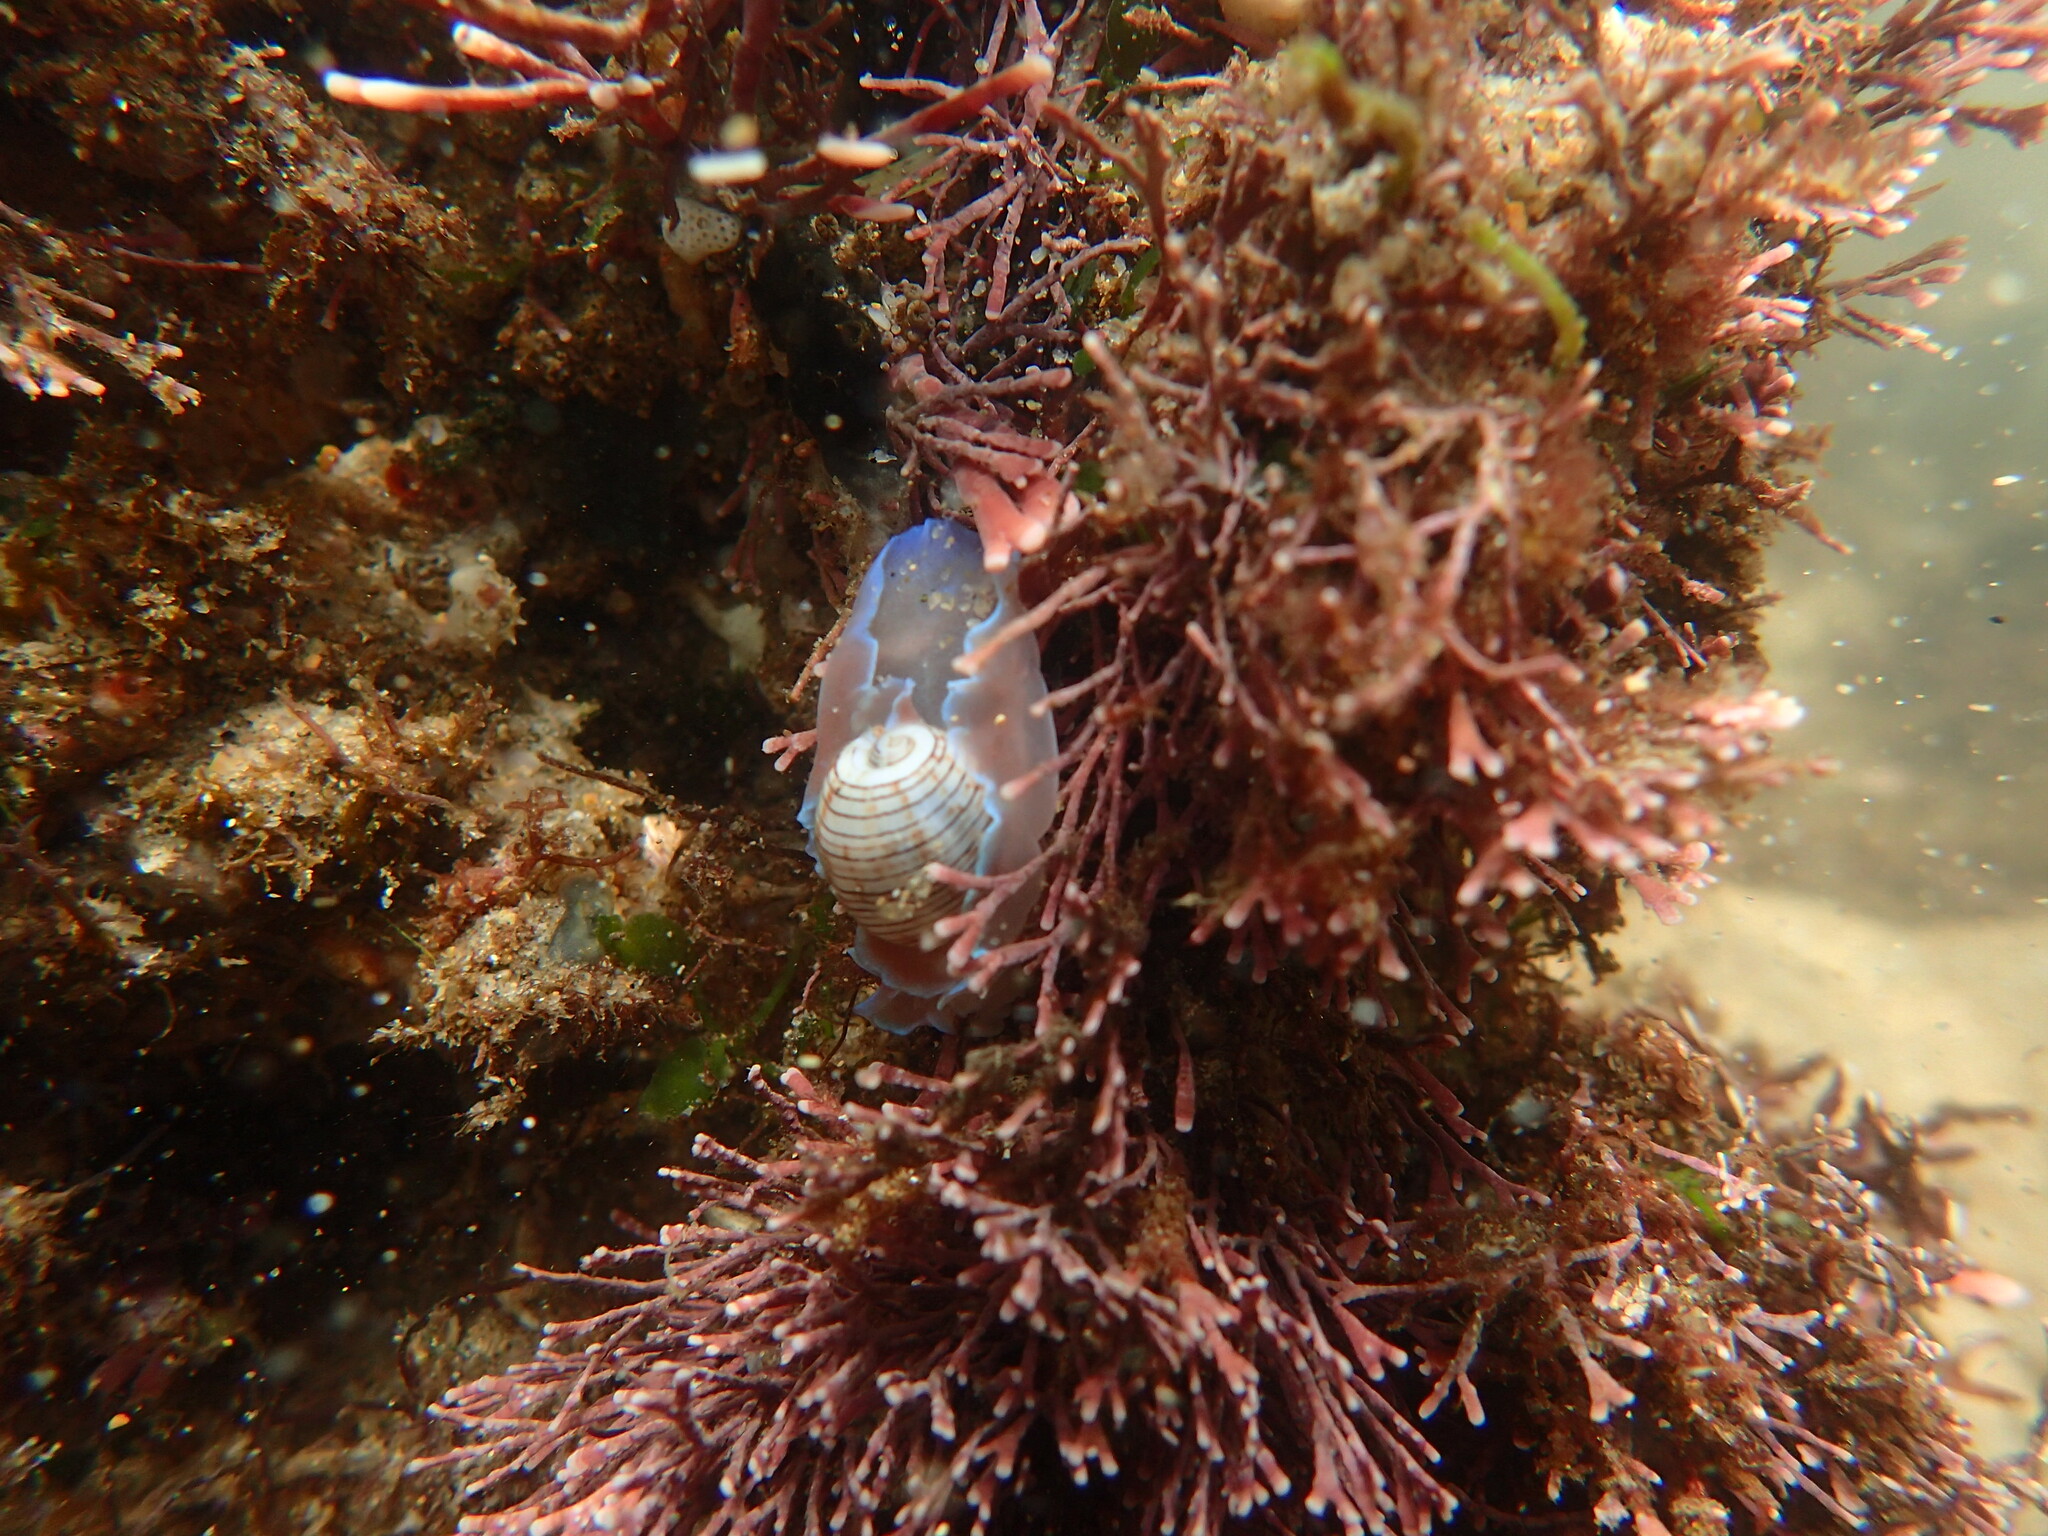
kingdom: Animalia
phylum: Mollusca
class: Gastropoda
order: Cephalaspidea
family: Aplustridae
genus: Hydatina
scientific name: Hydatina physis
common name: Brown-line paperbubble
